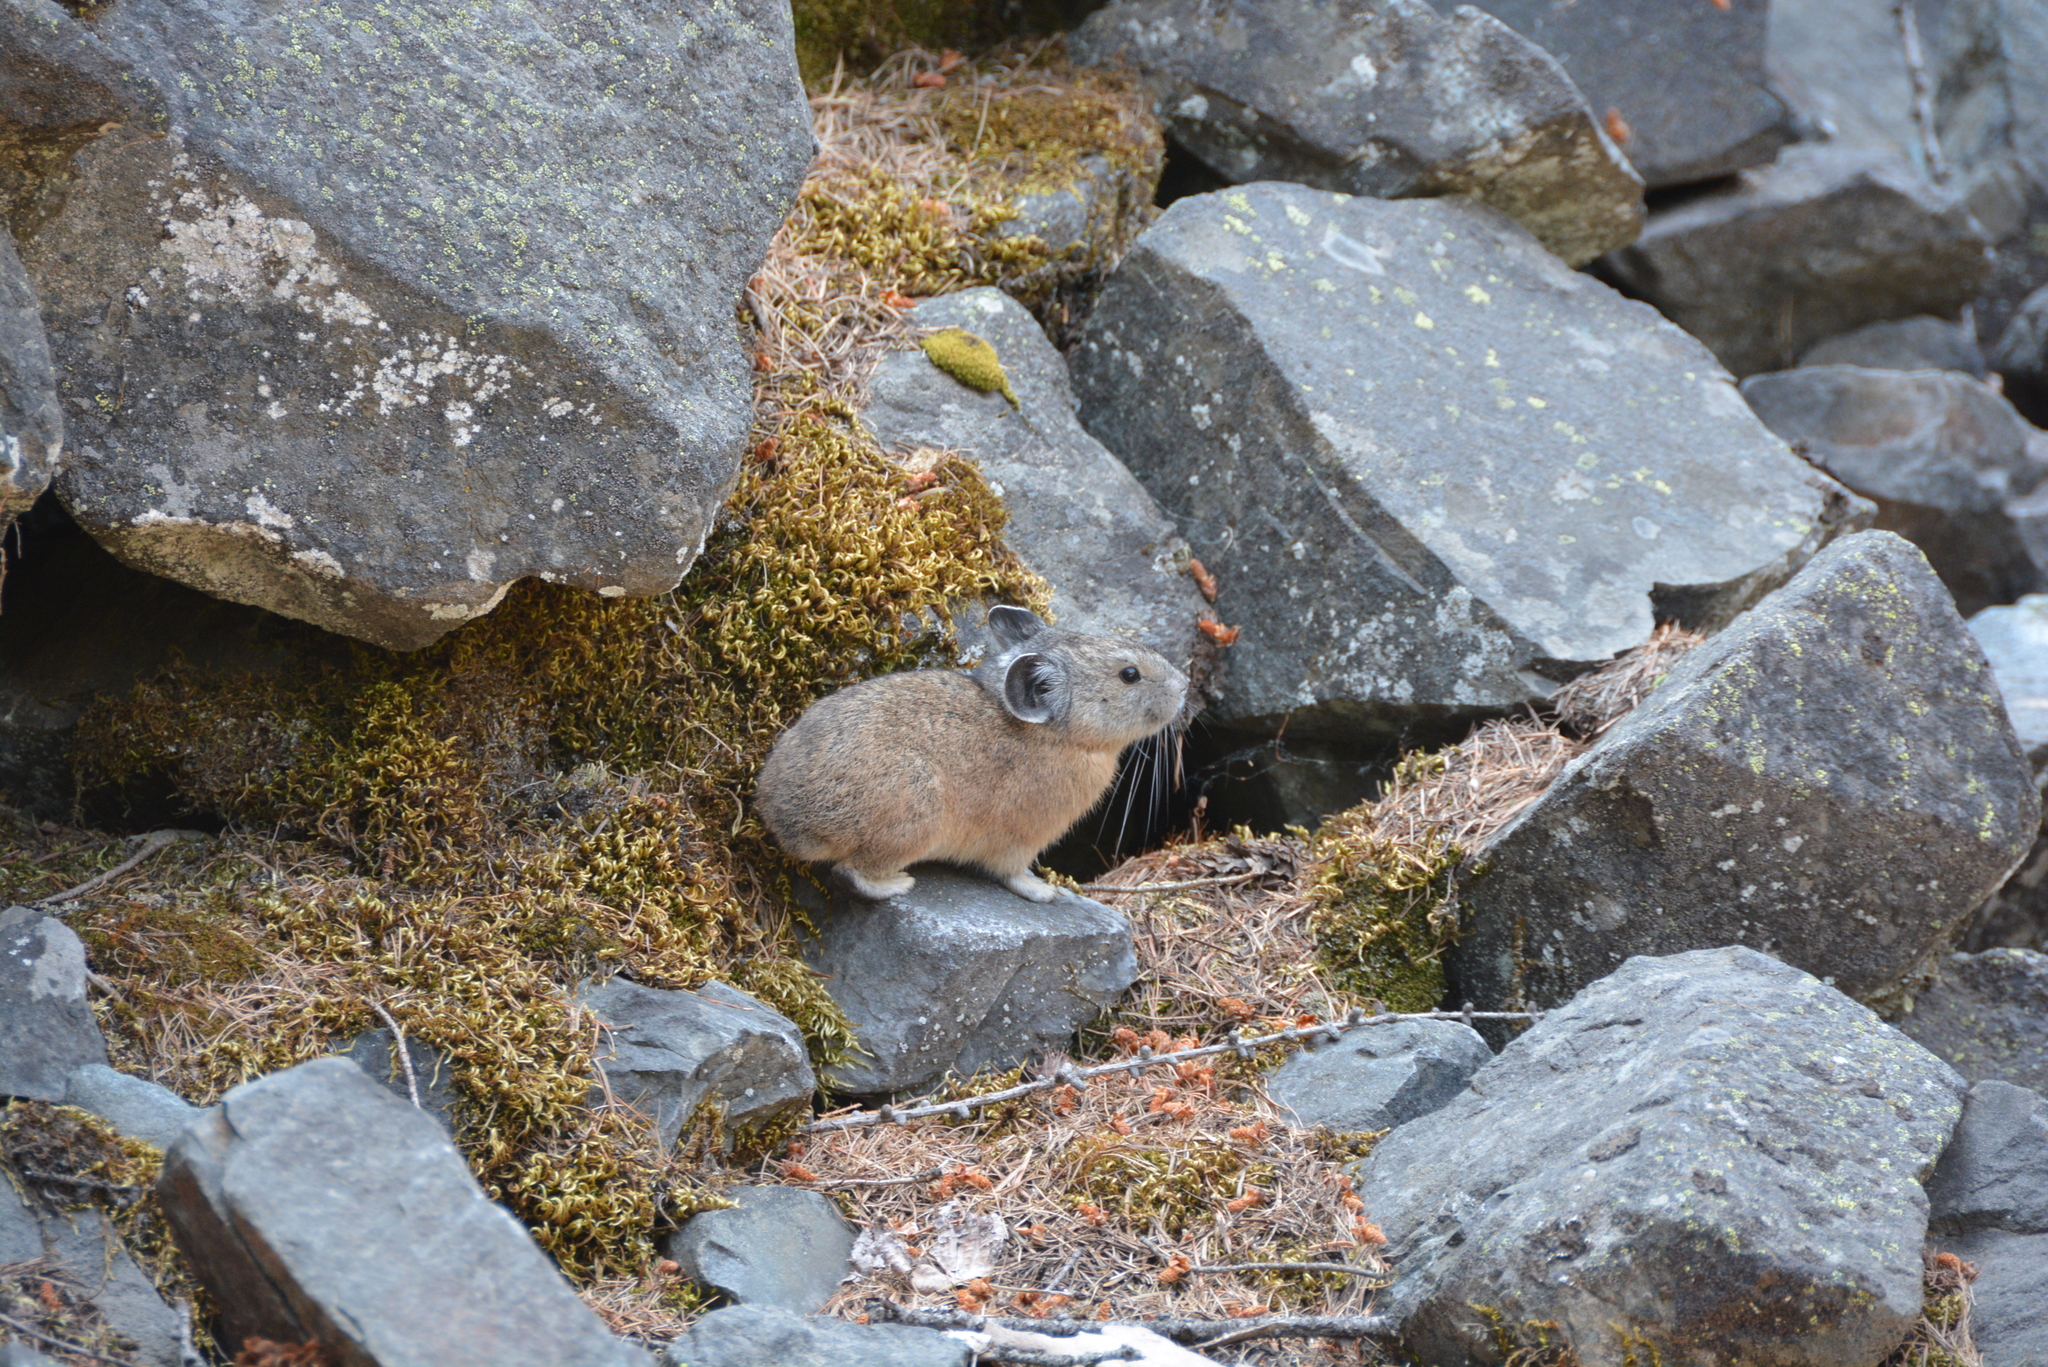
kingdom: Animalia
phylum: Chordata
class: Mammalia
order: Lagomorpha
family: Ochotonidae
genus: Ochotona
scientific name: Ochotona princeps
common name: American pika
